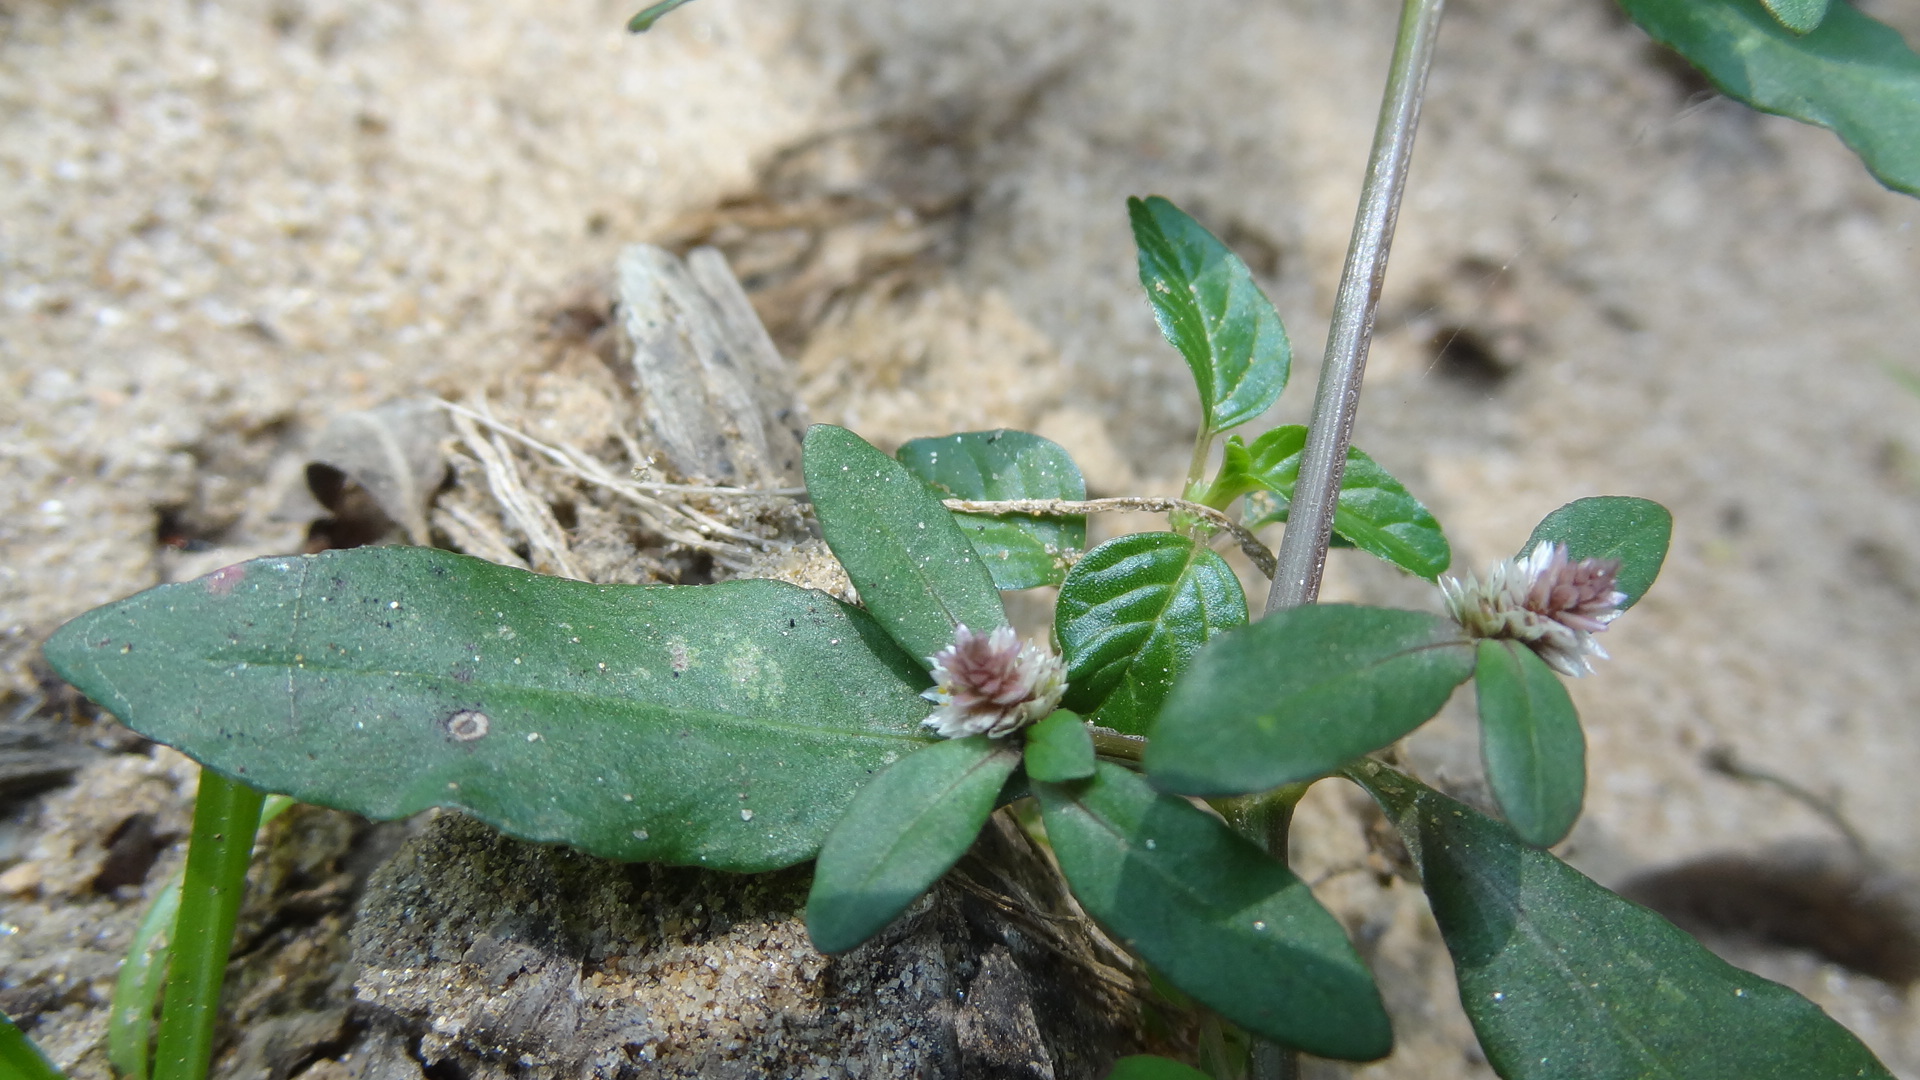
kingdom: Plantae
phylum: Tracheophyta
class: Magnoliopsida
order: Caryophyllales
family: Amaranthaceae
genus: Alternanthera
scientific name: Alternanthera sessilis
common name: Sessile joyweed
